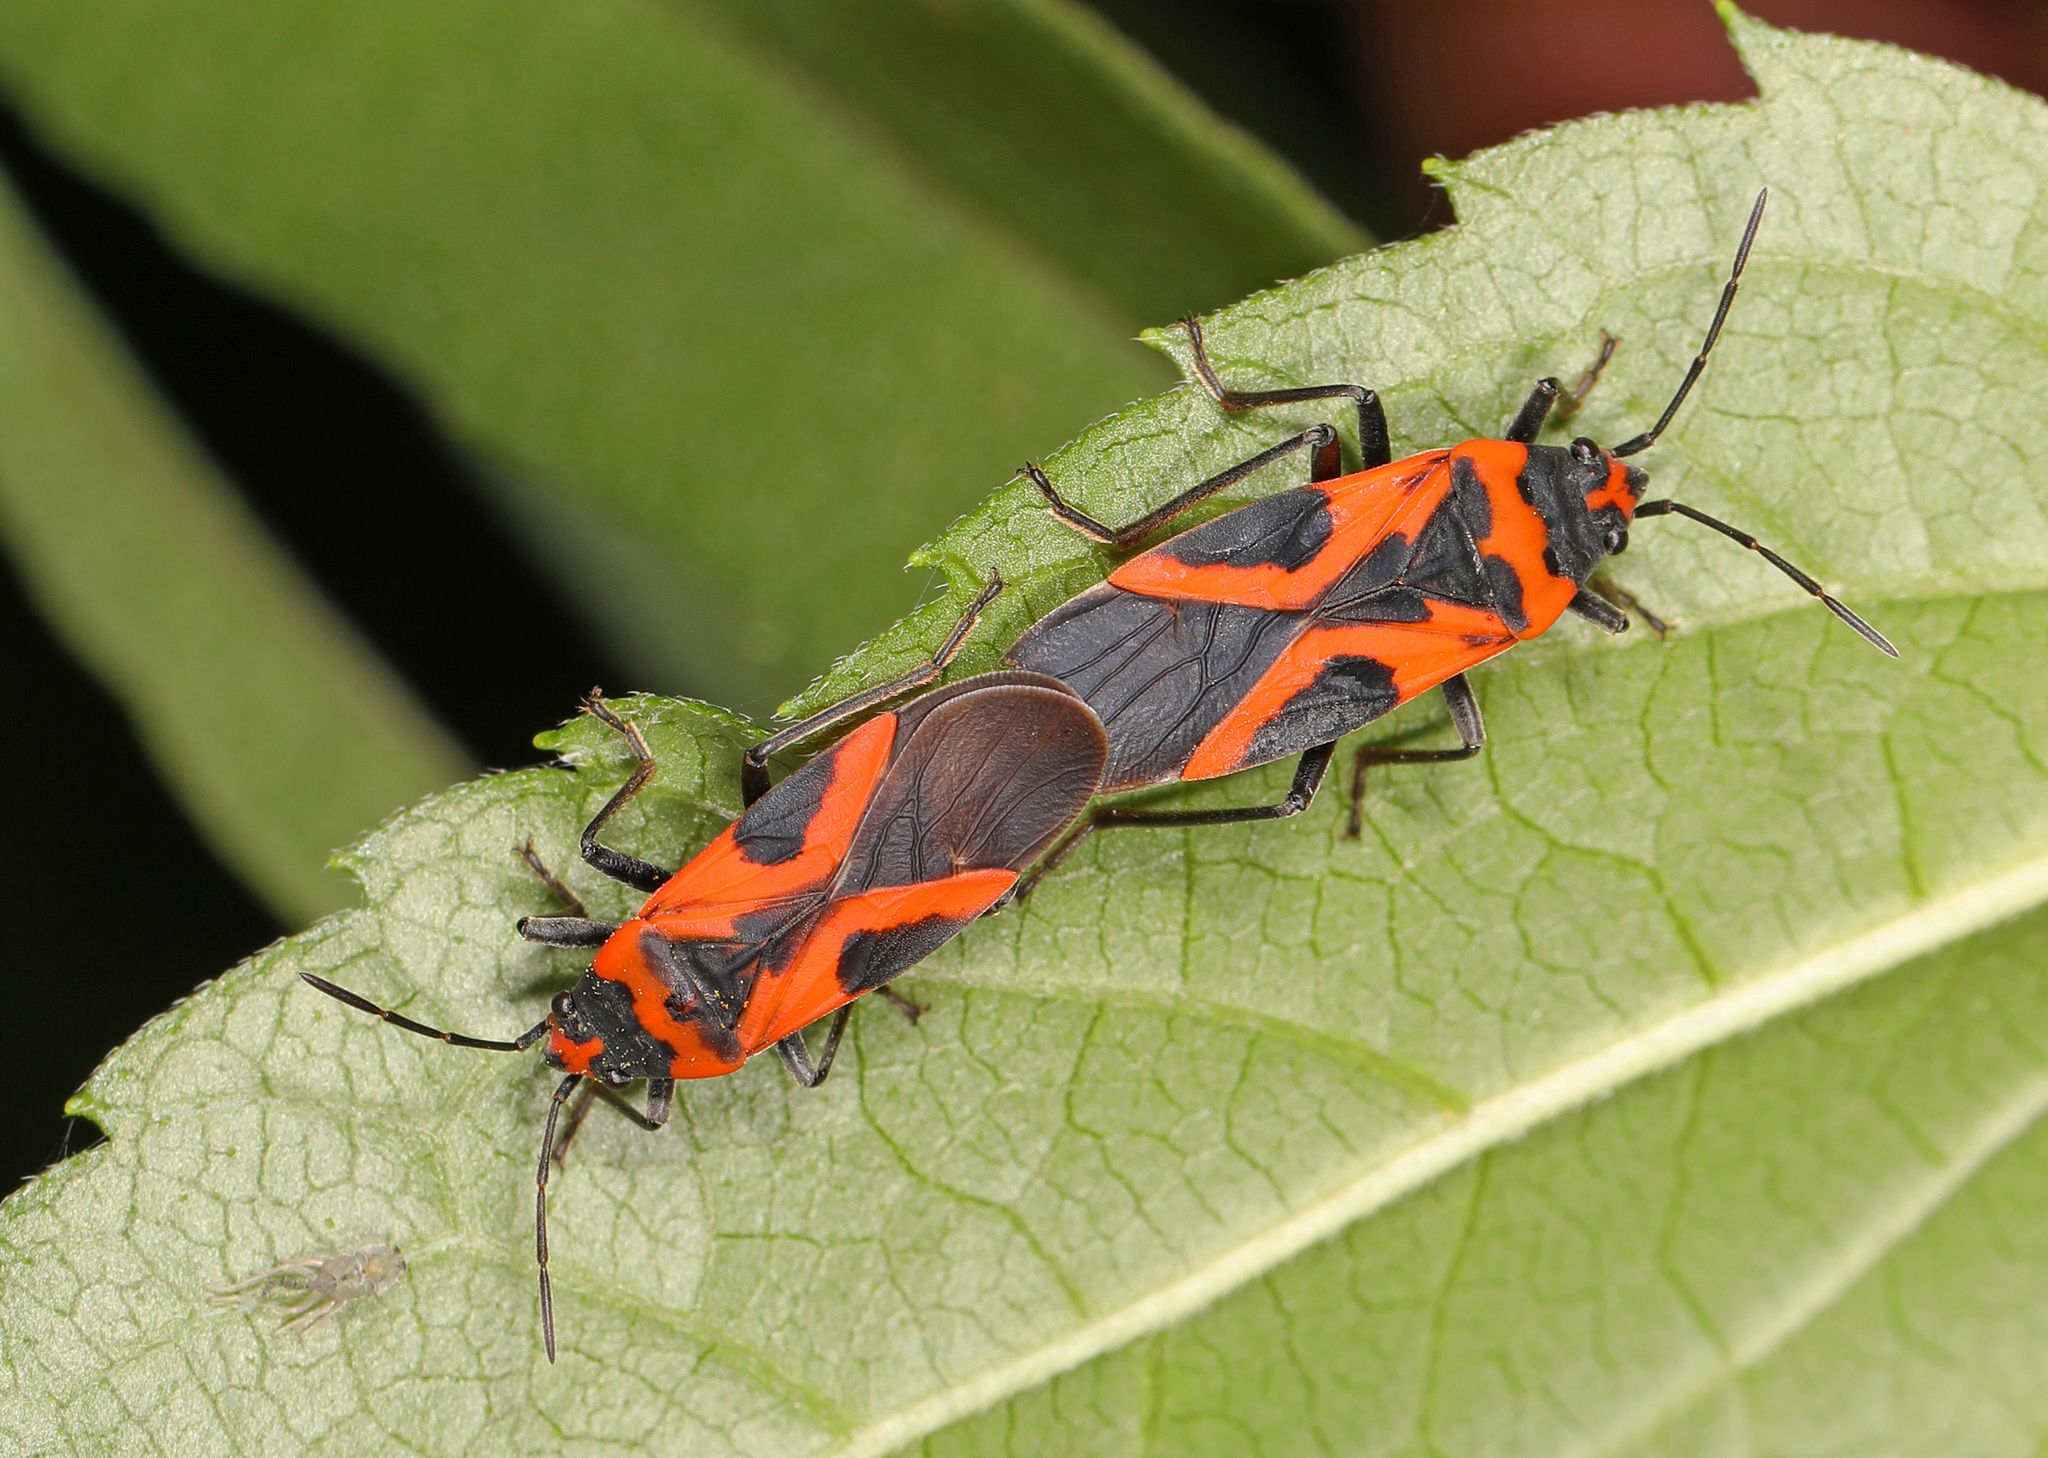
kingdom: Animalia
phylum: Arthropoda
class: Insecta
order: Hemiptera
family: Lygaeidae
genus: Lygaeus
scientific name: Lygaeus turcicus
